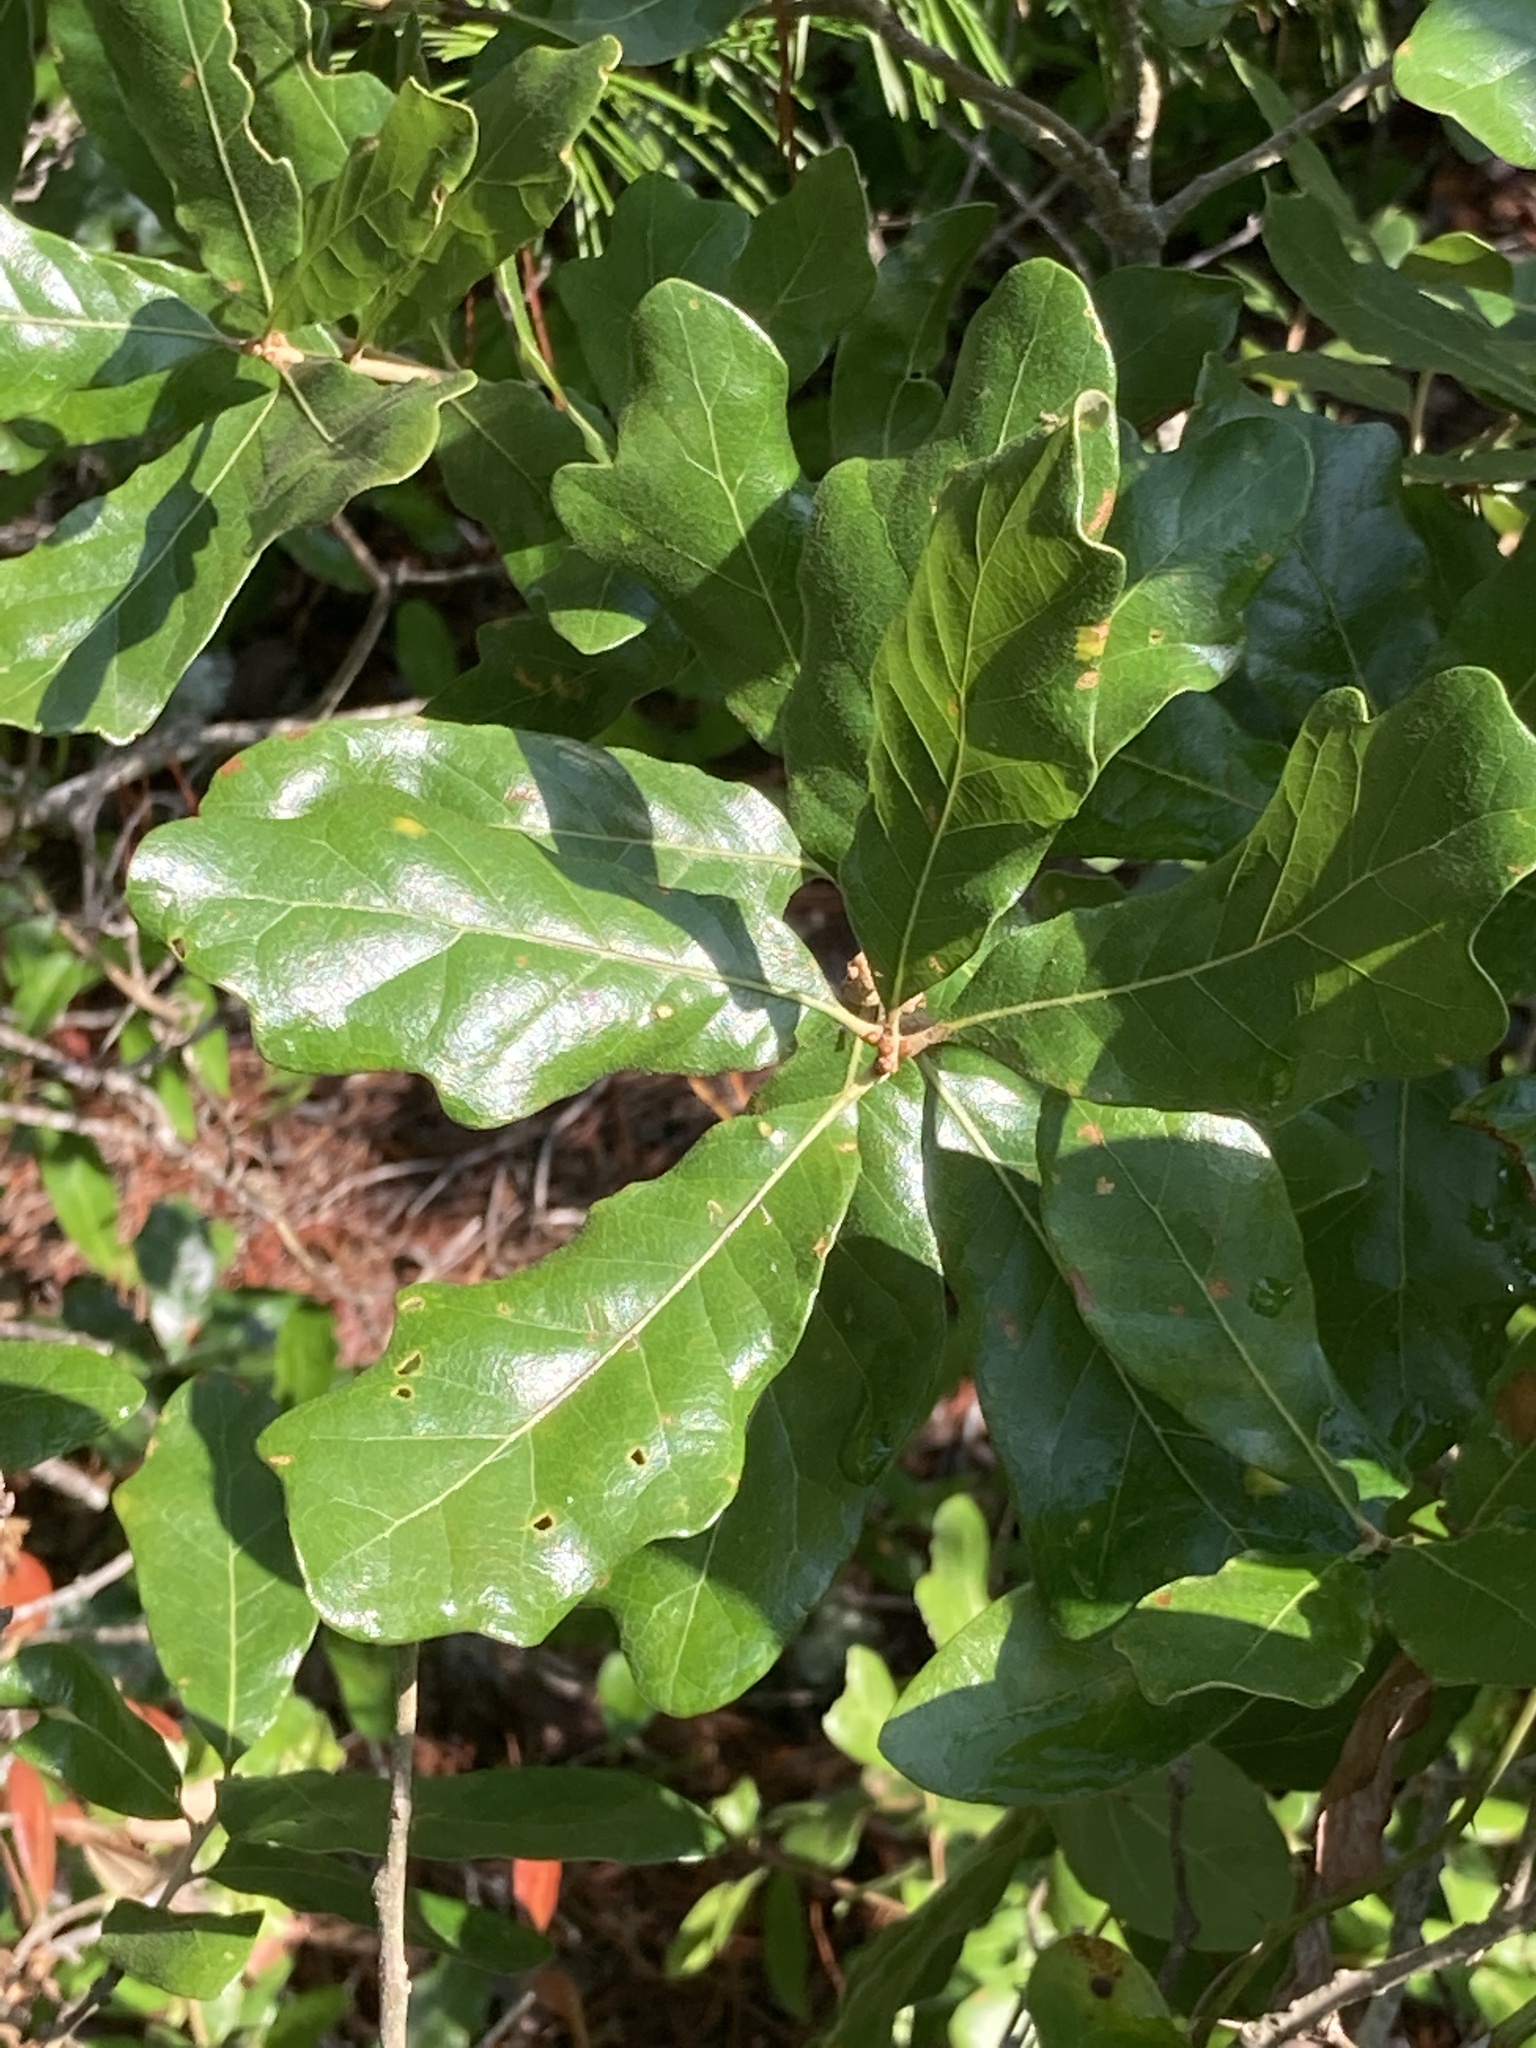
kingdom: Plantae
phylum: Tracheophyta
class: Magnoliopsida
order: Fagales
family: Fagaceae
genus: Quercus
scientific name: Quercus chapmanii
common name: Chapman oak
